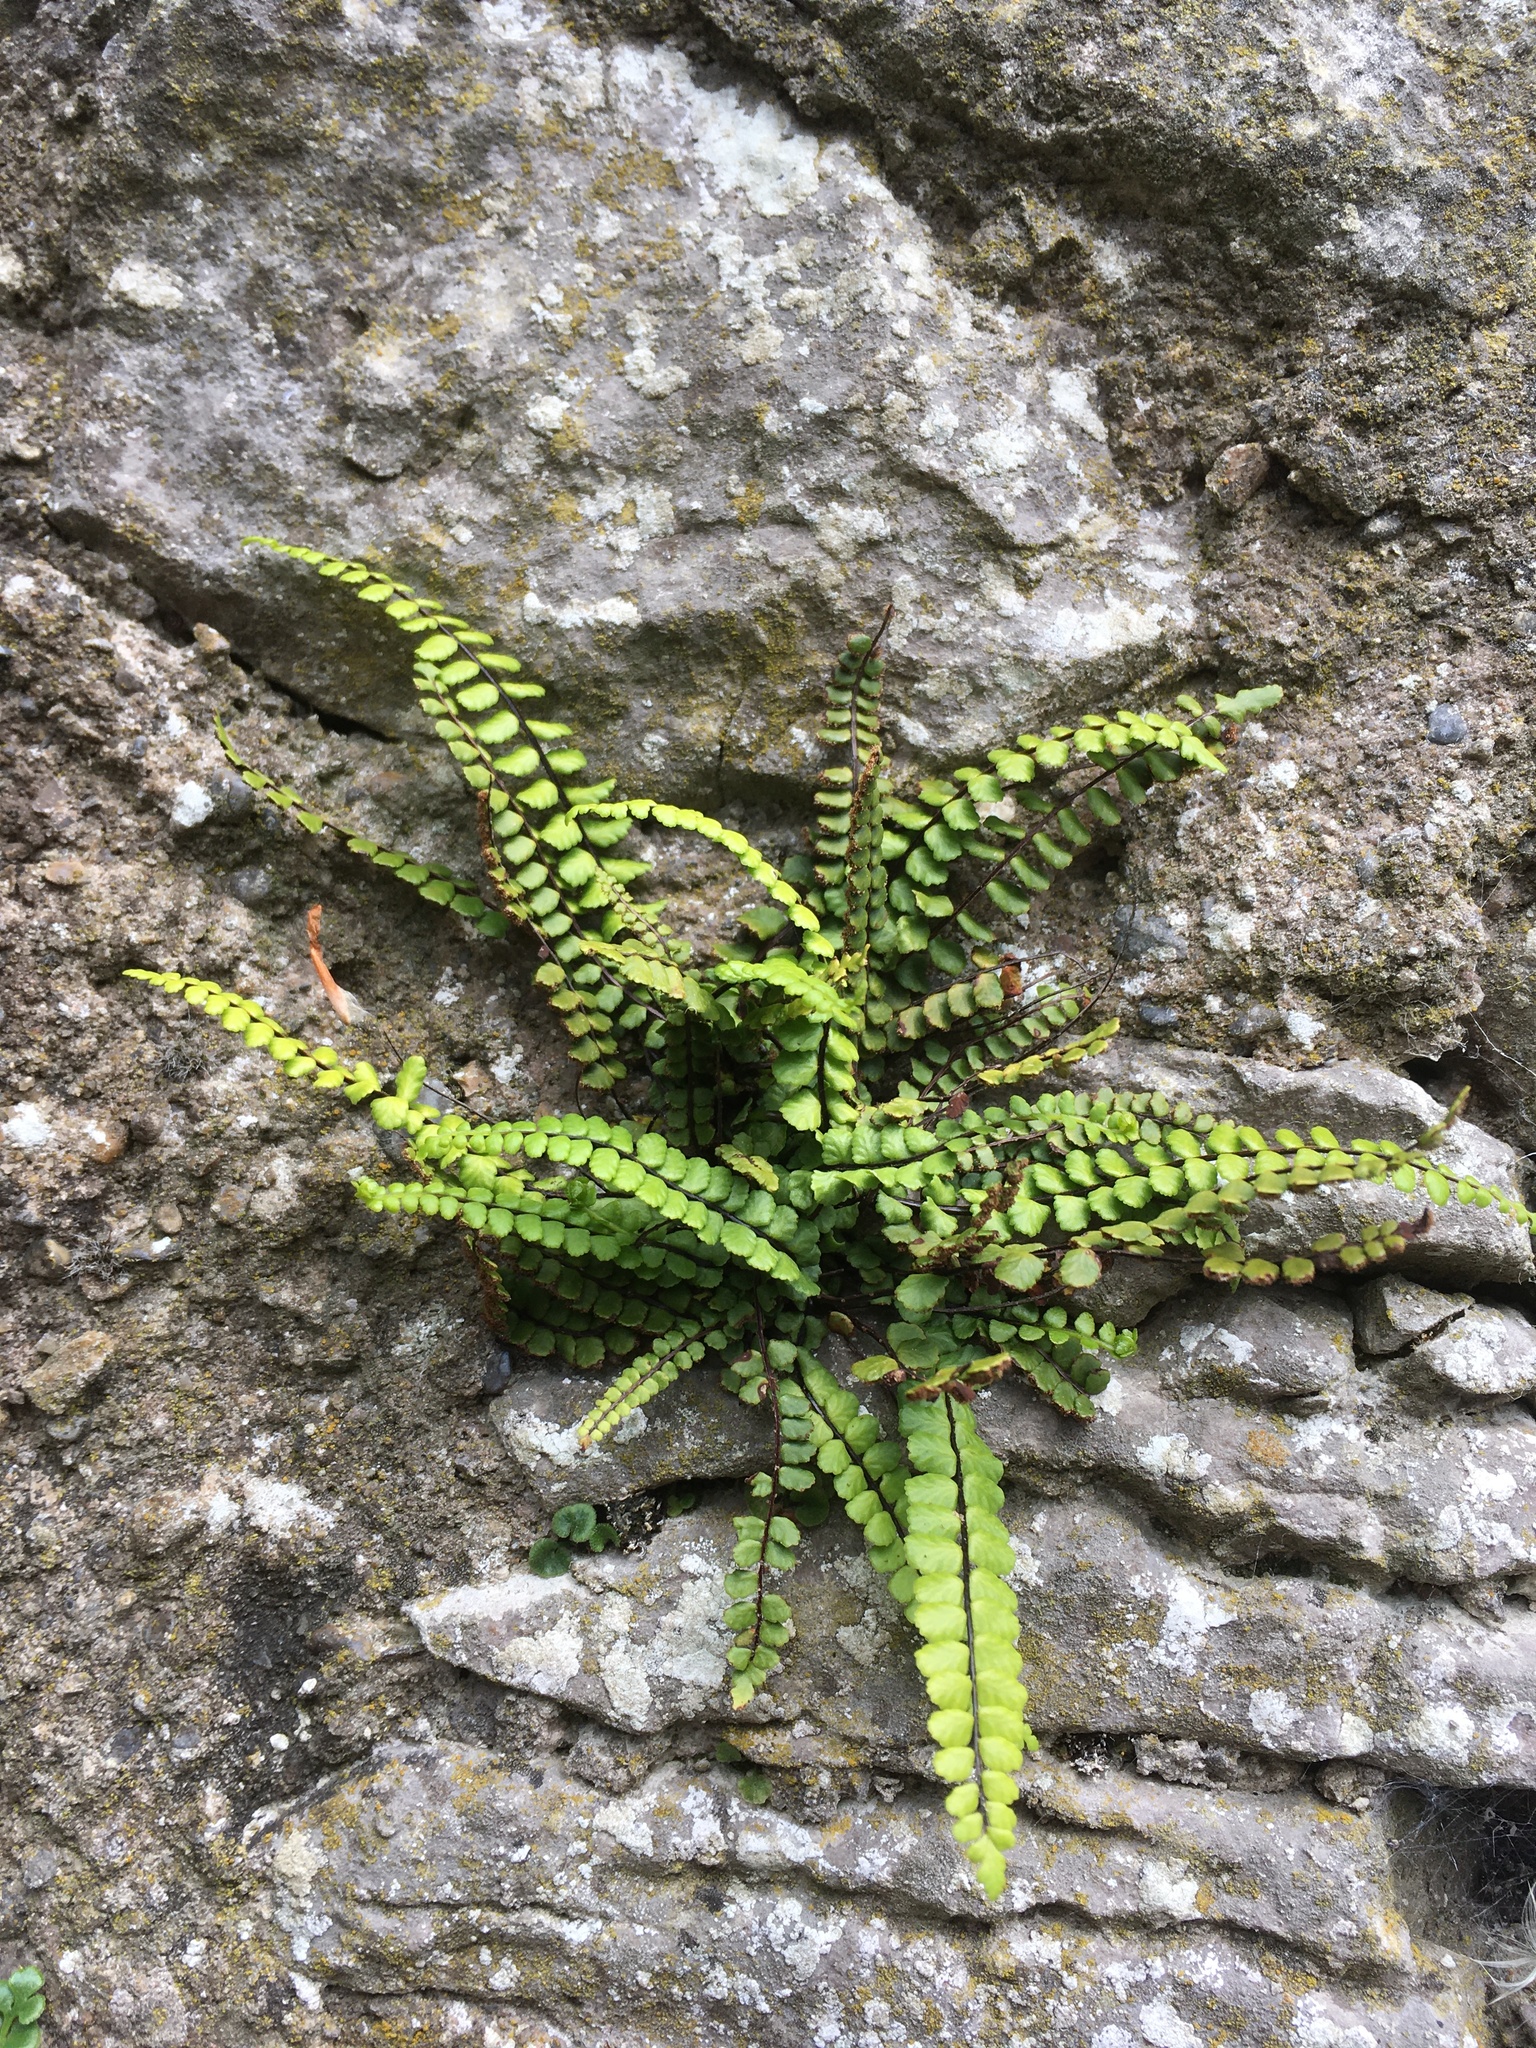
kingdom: Plantae
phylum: Tracheophyta
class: Polypodiopsida
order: Polypodiales
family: Aspleniaceae
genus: Asplenium
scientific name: Asplenium trichomanes
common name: Maidenhair spleenwort
